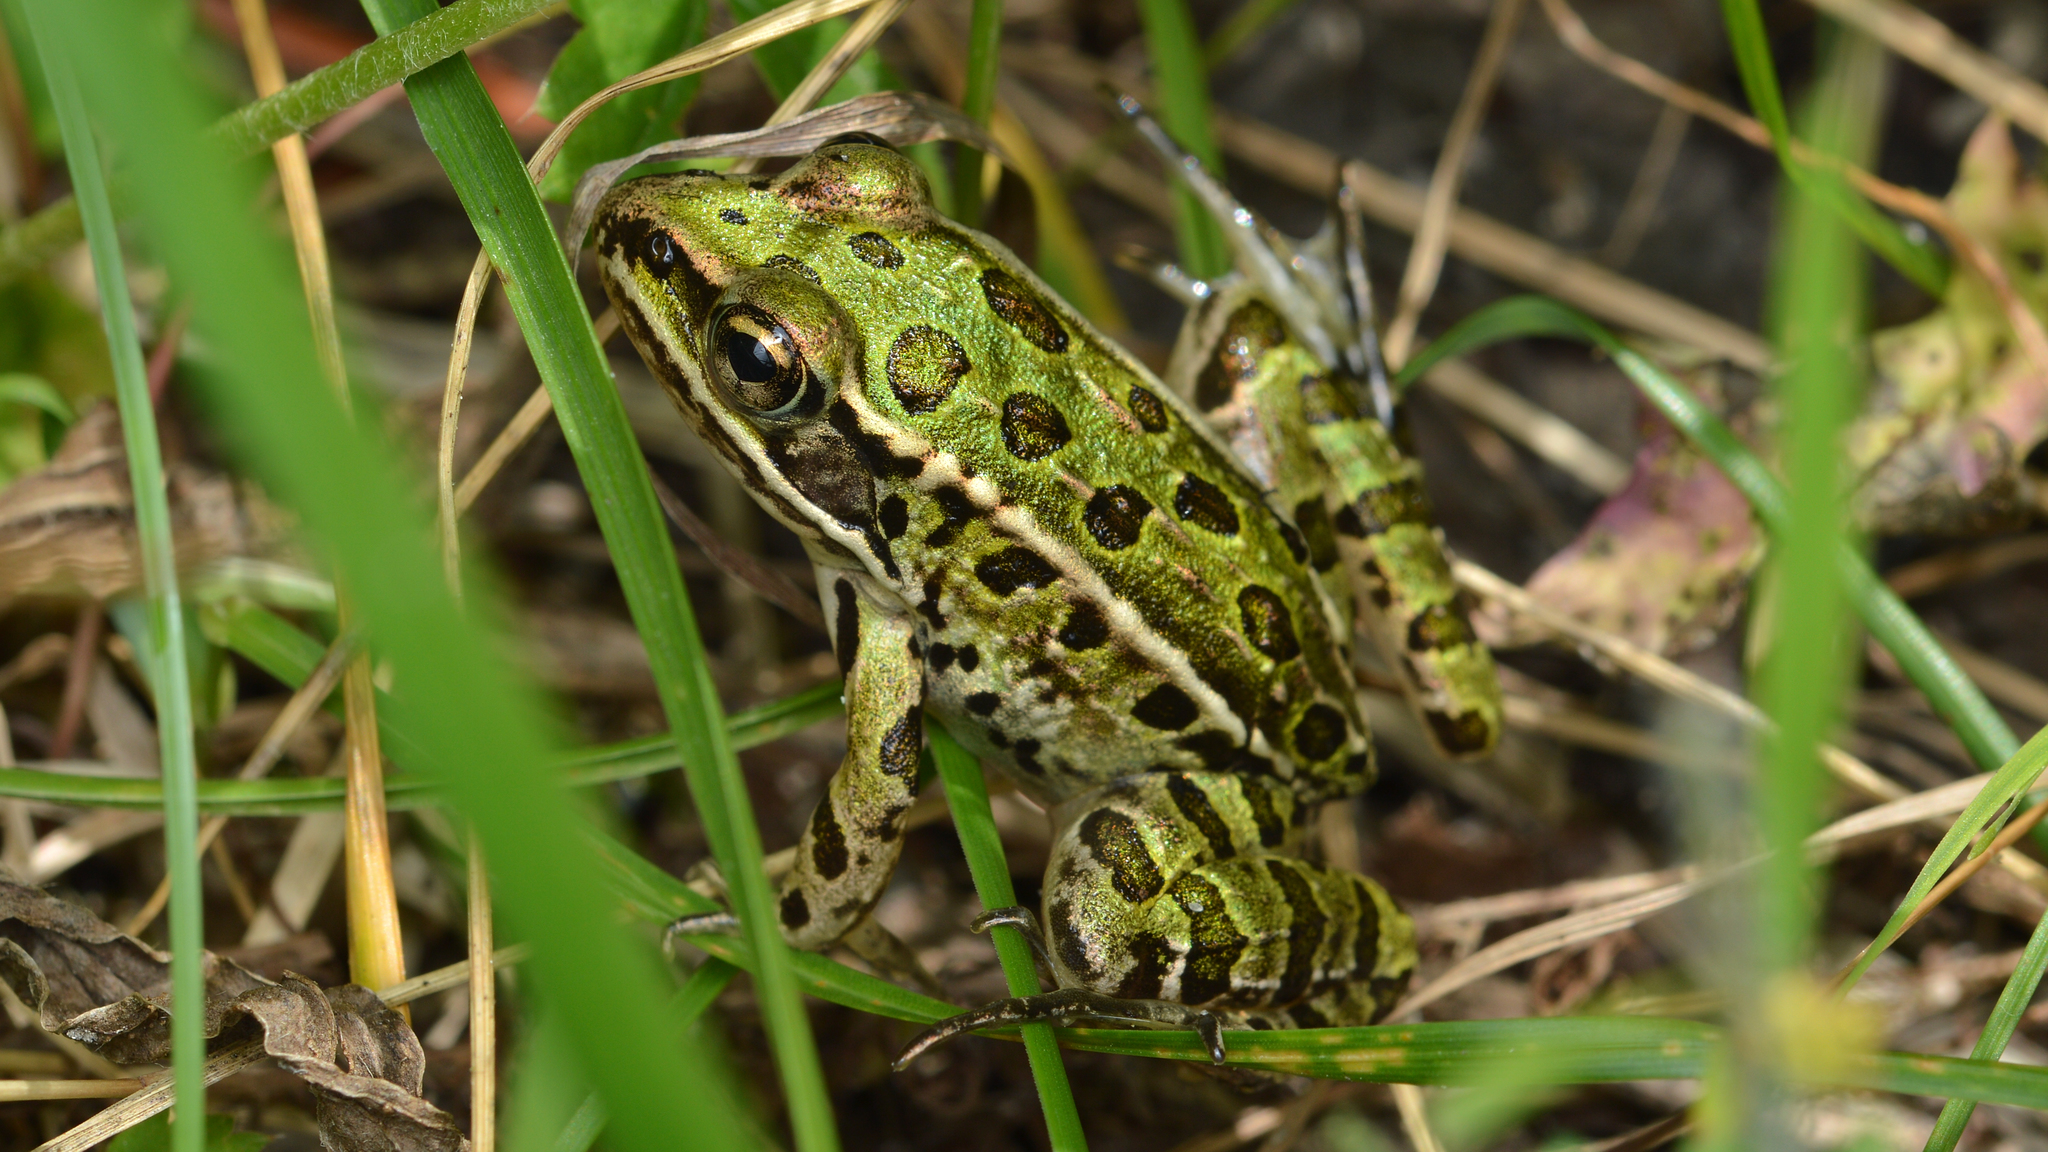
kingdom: Animalia
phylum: Chordata
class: Amphibia
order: Anura
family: Ranidae
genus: Lithobates
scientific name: Lithobates pipiens
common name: Northern leopard frog
